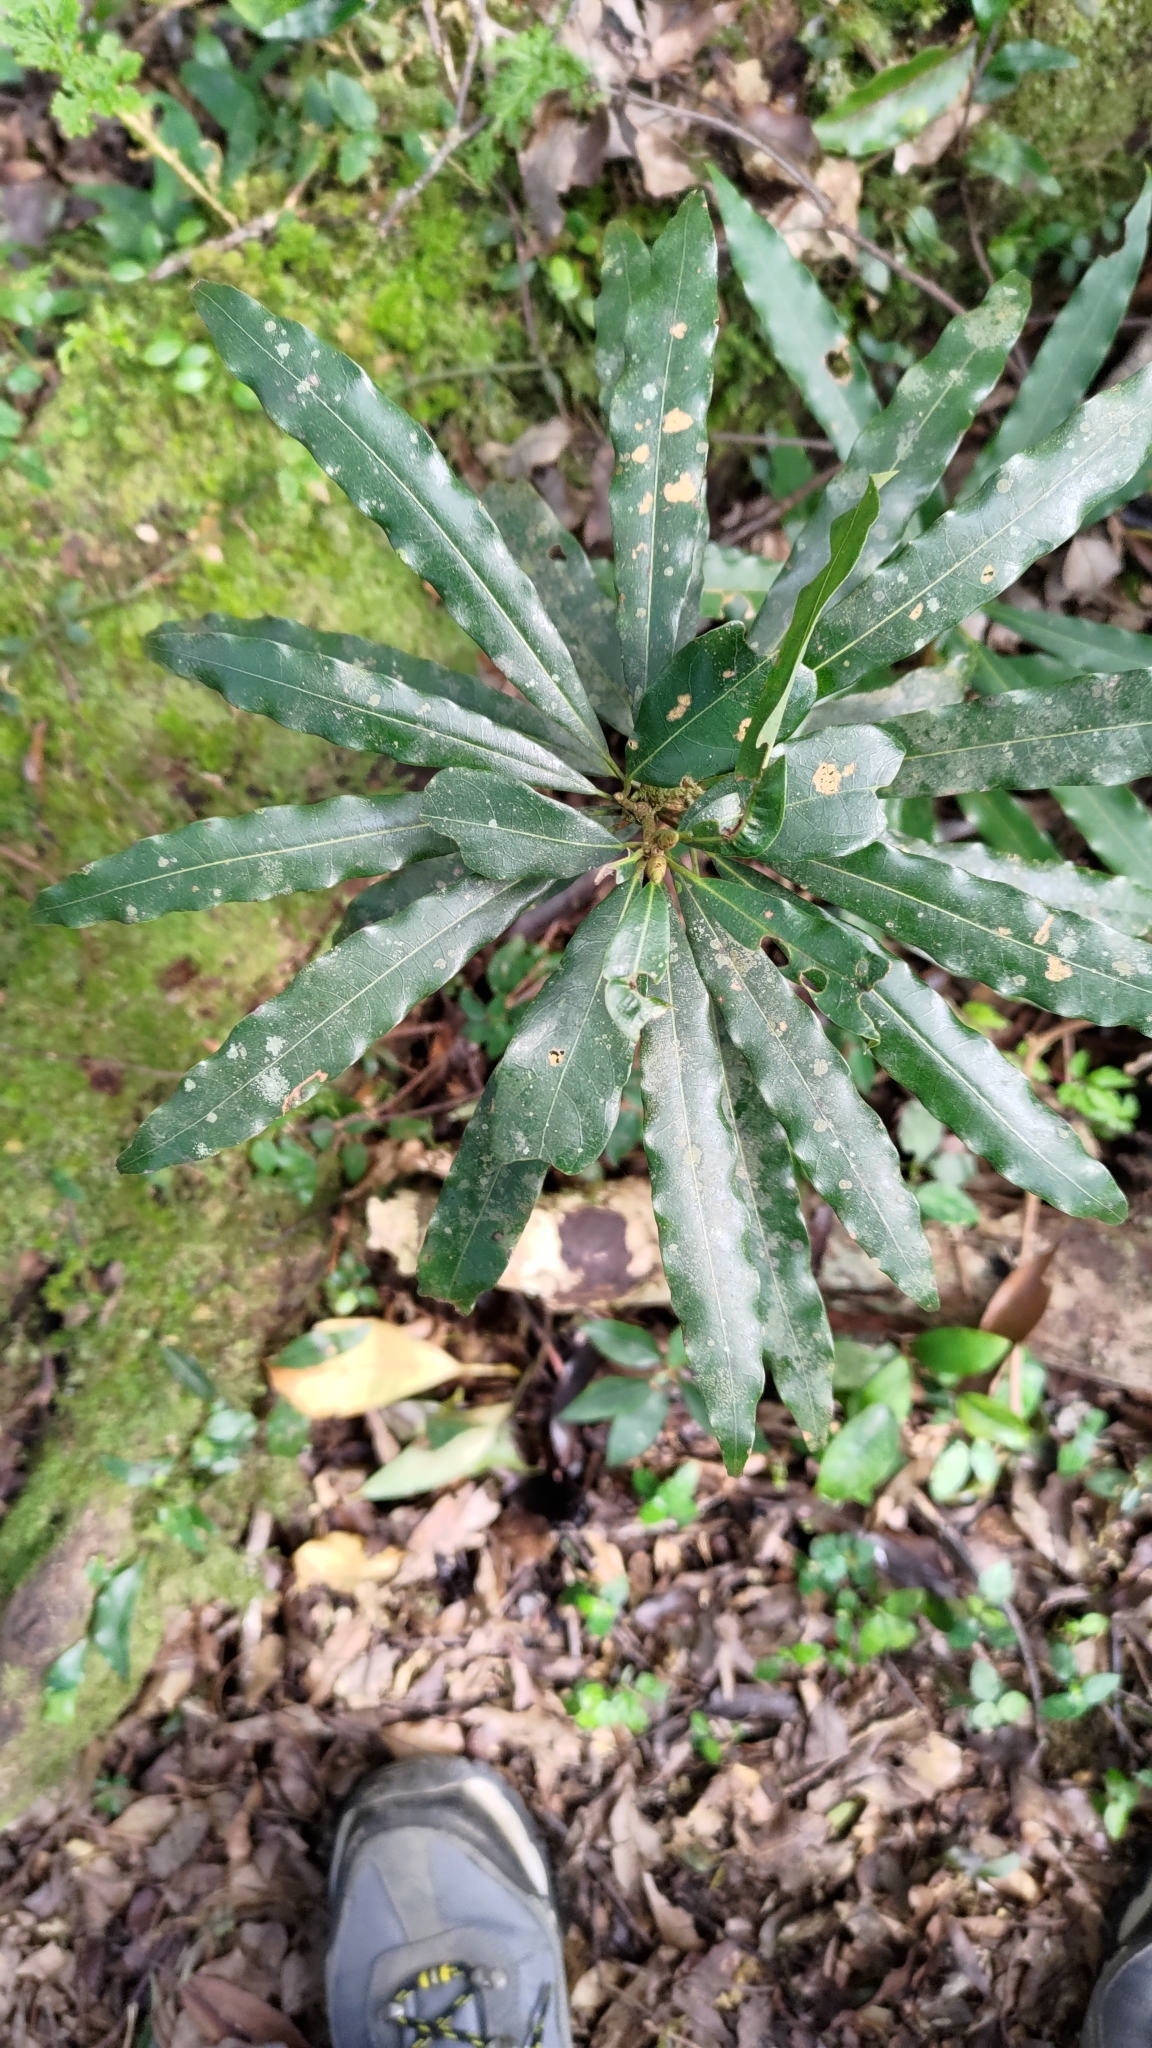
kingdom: Plantae
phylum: Tracheophyta
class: Magnoliopsida
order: Laurales
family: Lauraceae
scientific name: Lauraceae
